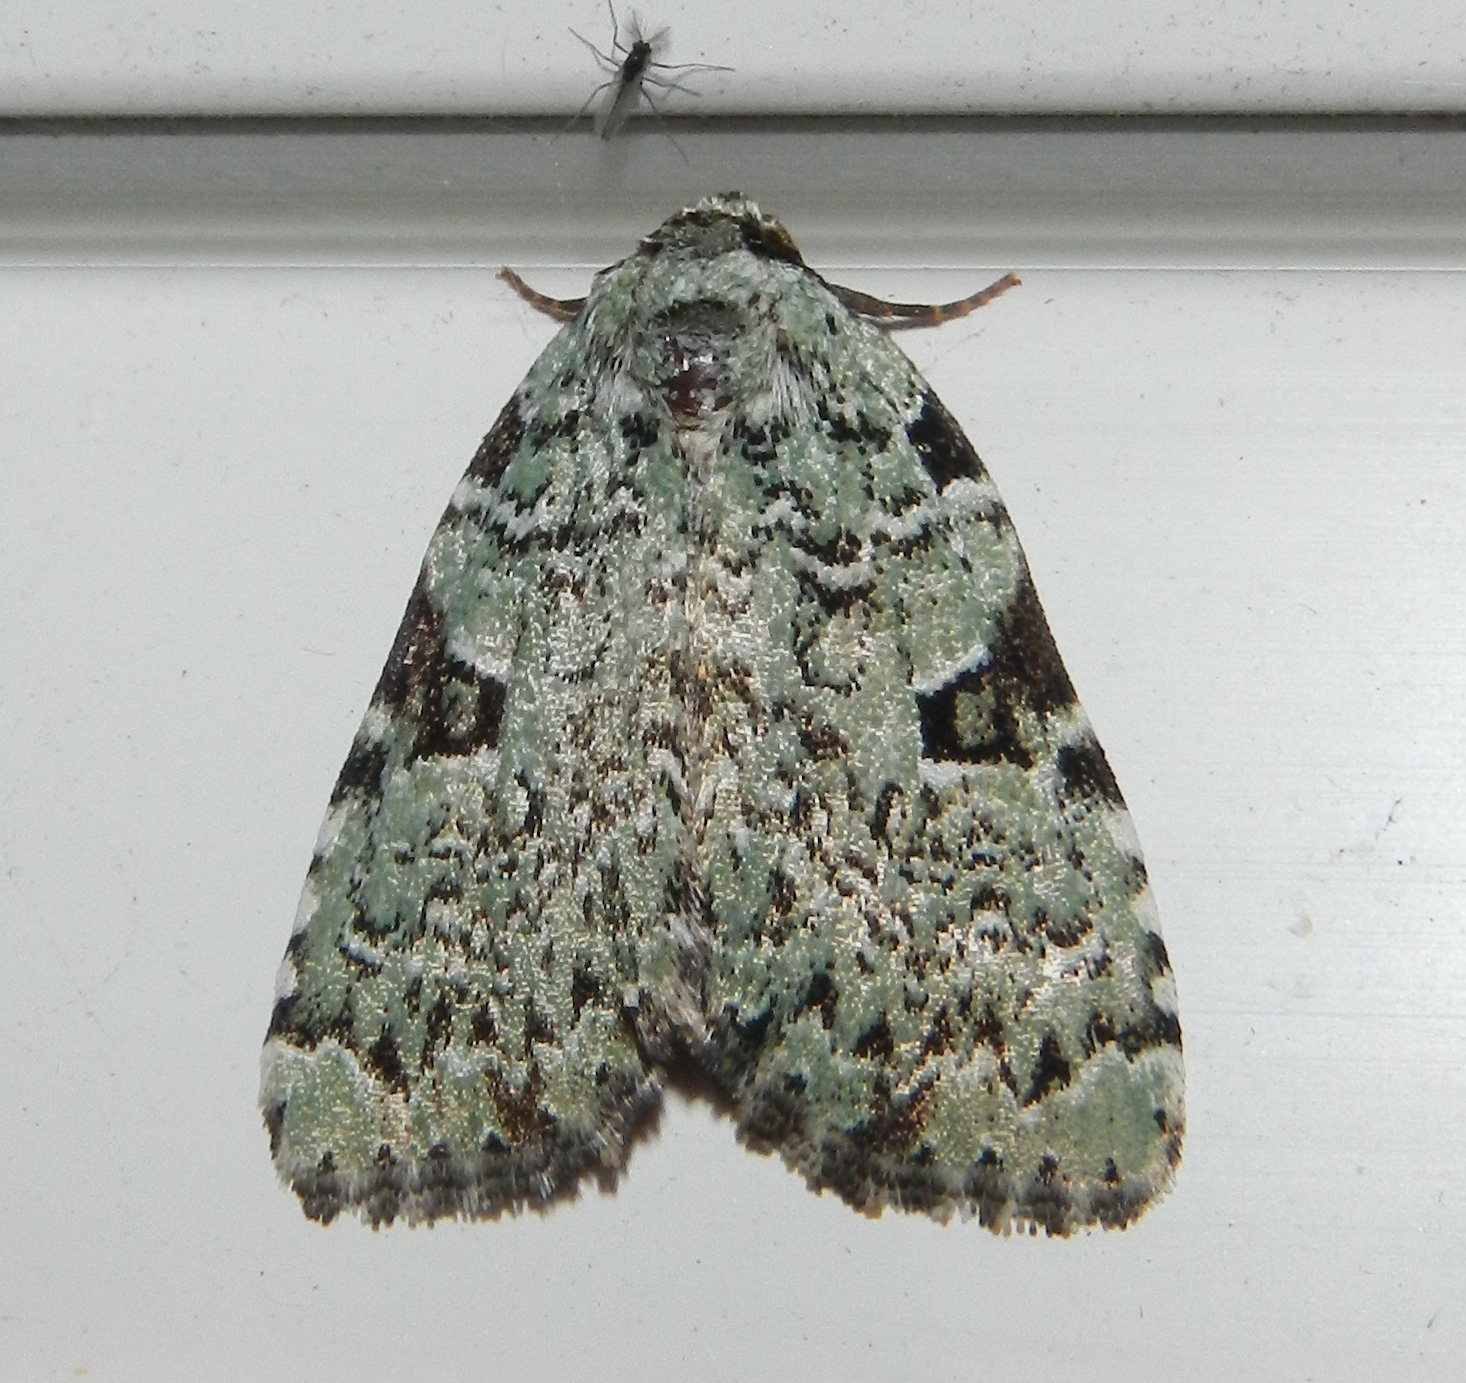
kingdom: Animalia
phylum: Arthropoda
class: Insecta
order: Lepidoptera
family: Noctuidae
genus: Leuconycta
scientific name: Leuconycta diphteroides
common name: Green leuconycta moth
